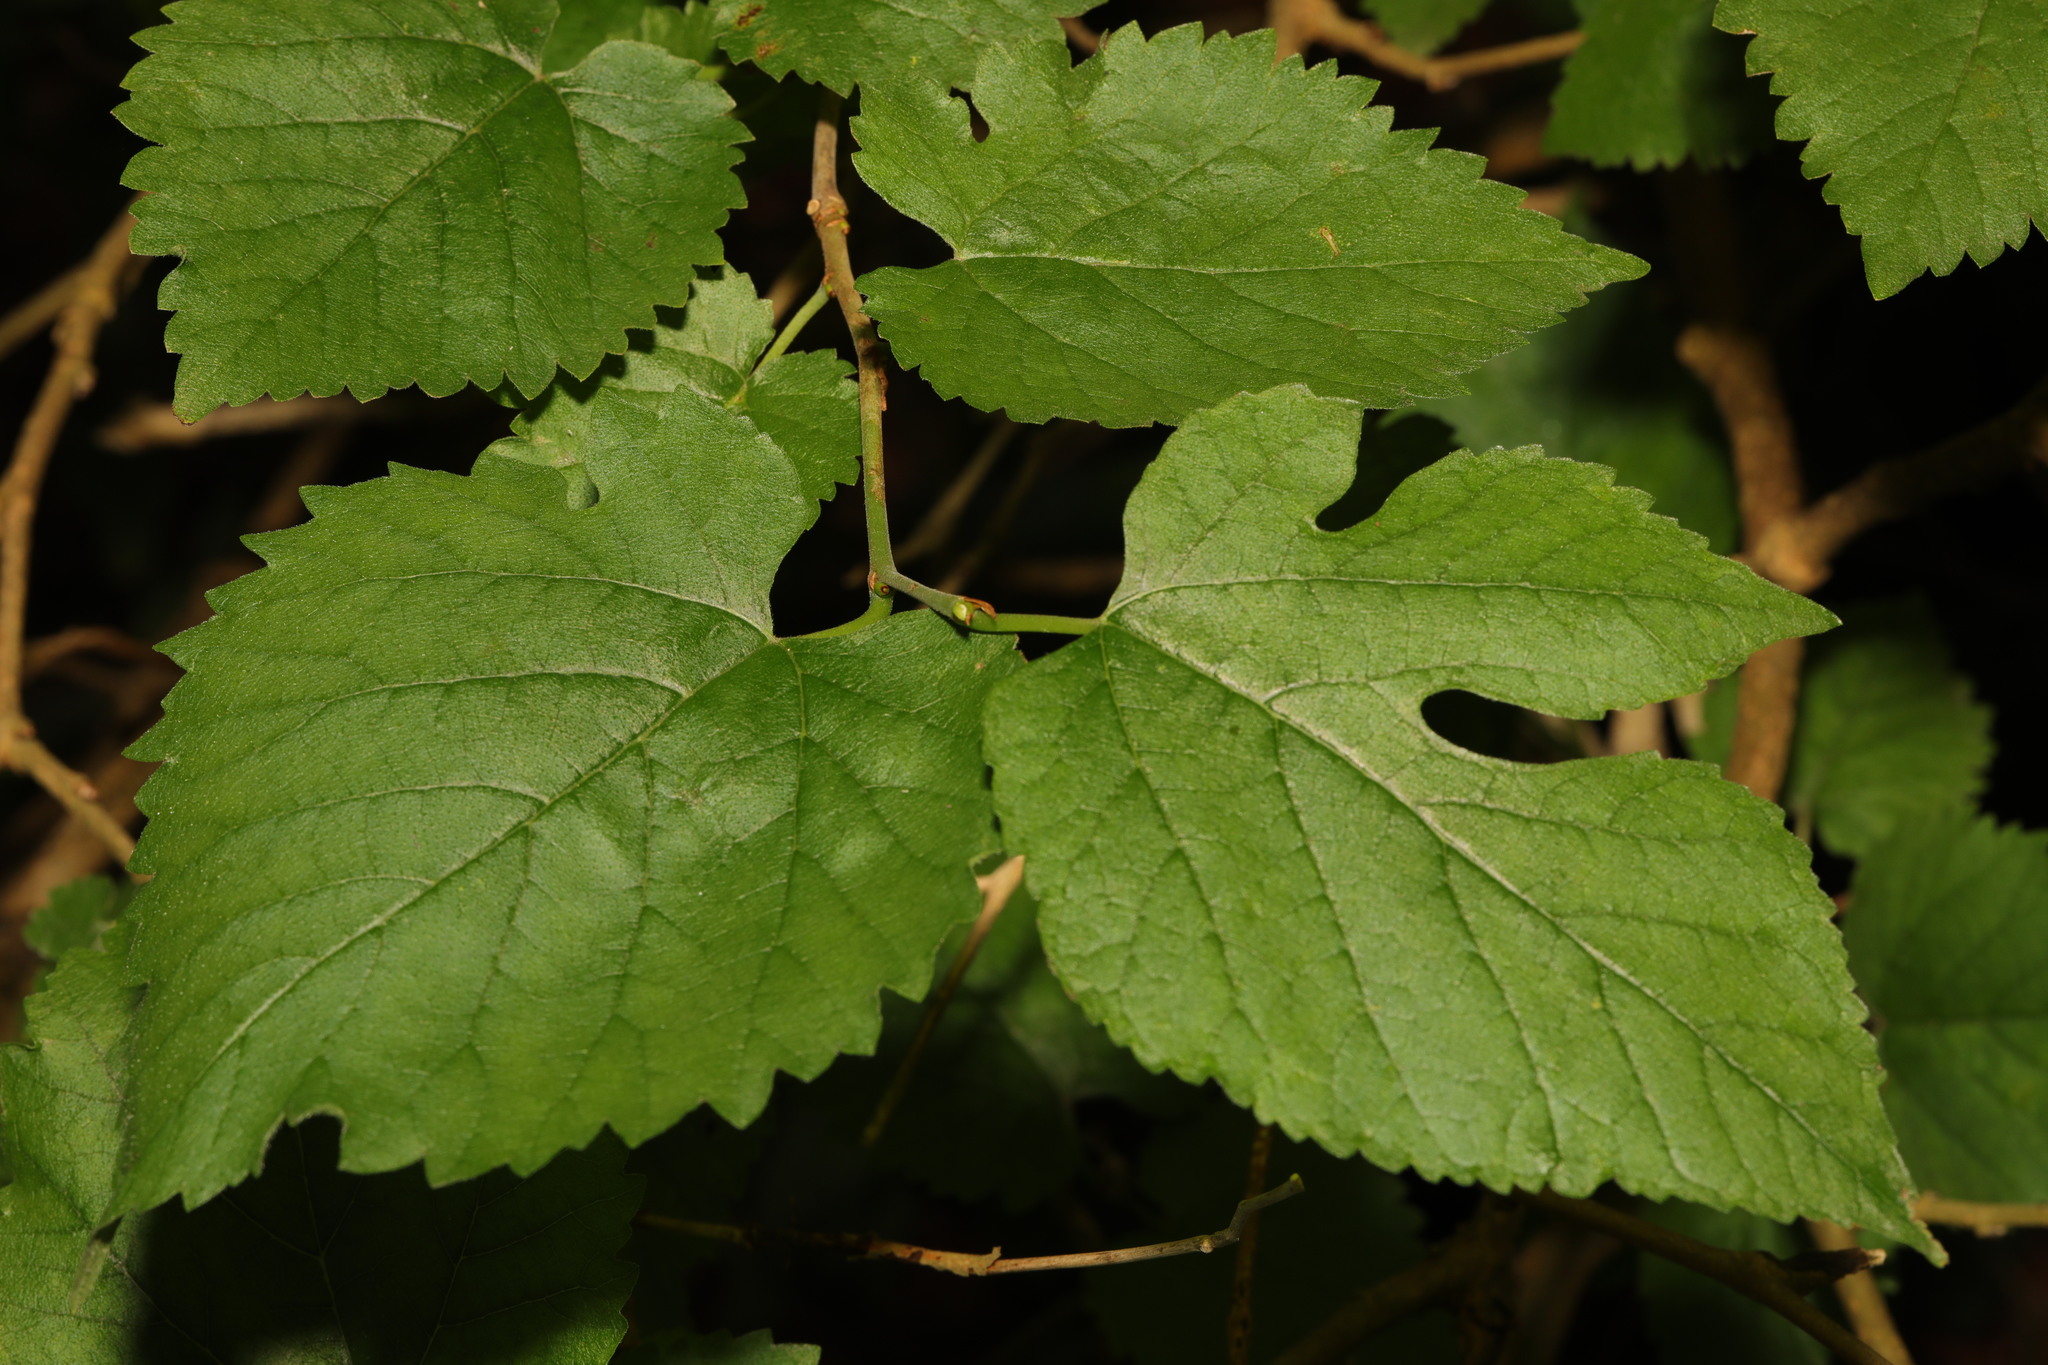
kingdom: Plantae
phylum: Tracheophyta
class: Magnoliopsida
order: Rosales
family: Moraceae
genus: Morus
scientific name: Morus nigra
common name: Black mulberry
